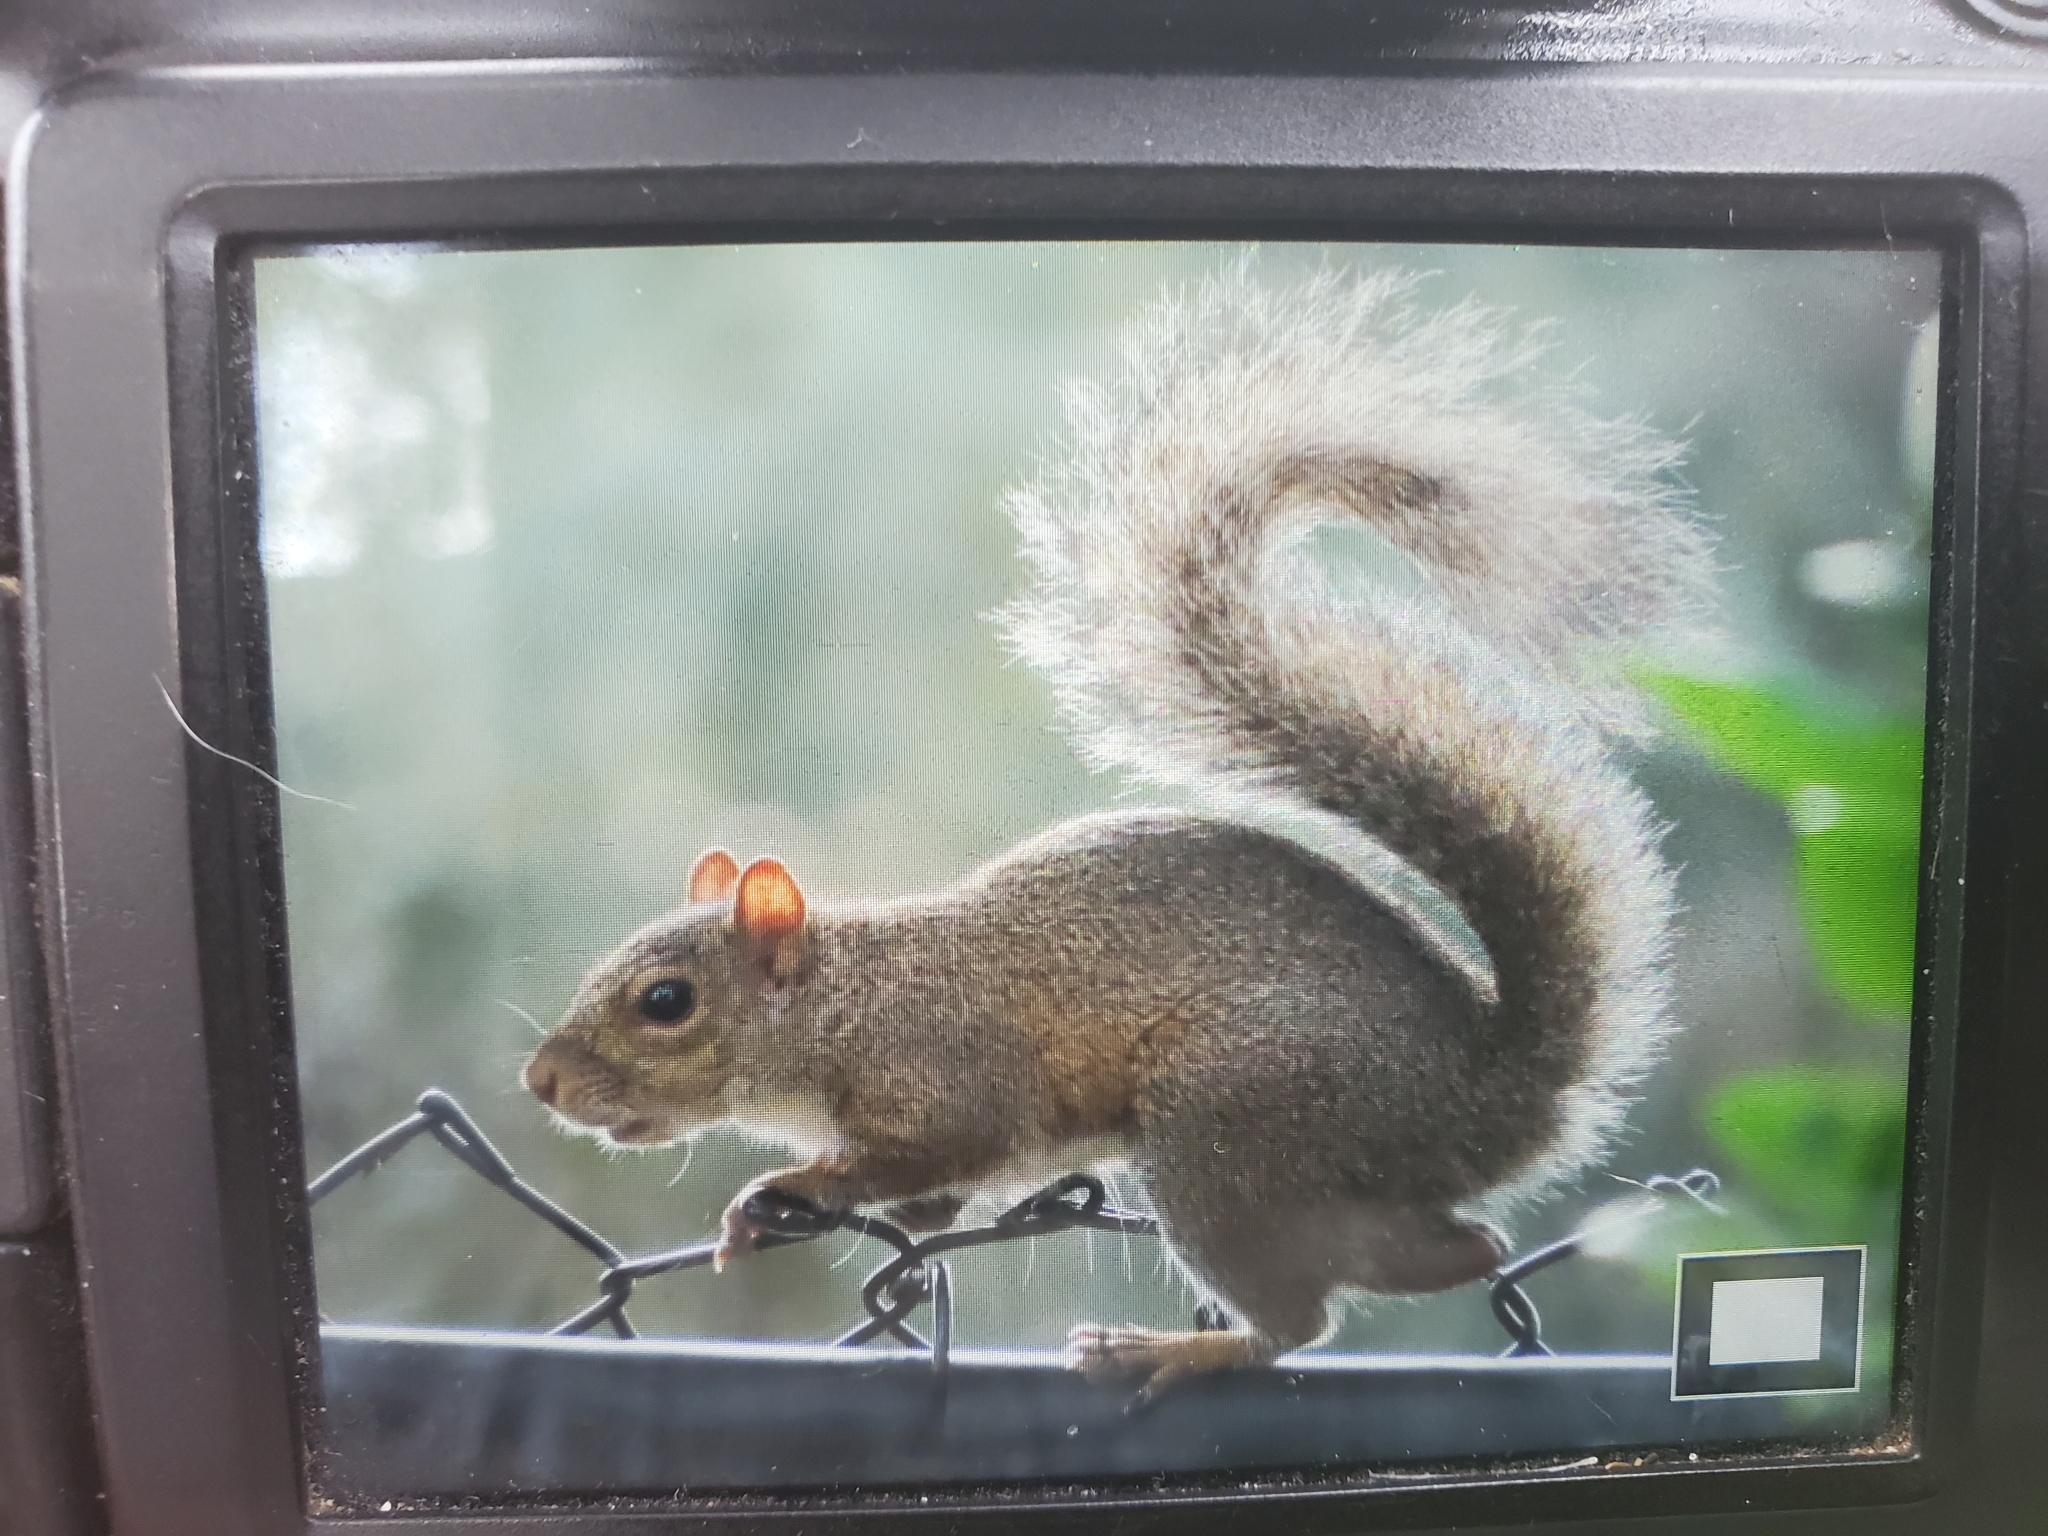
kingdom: Animalia
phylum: Chordata
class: Mammalia
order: Rodentia
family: Sciuridae
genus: Sciurus
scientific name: Sciurus carolinensis
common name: Eastern gray squirrel
